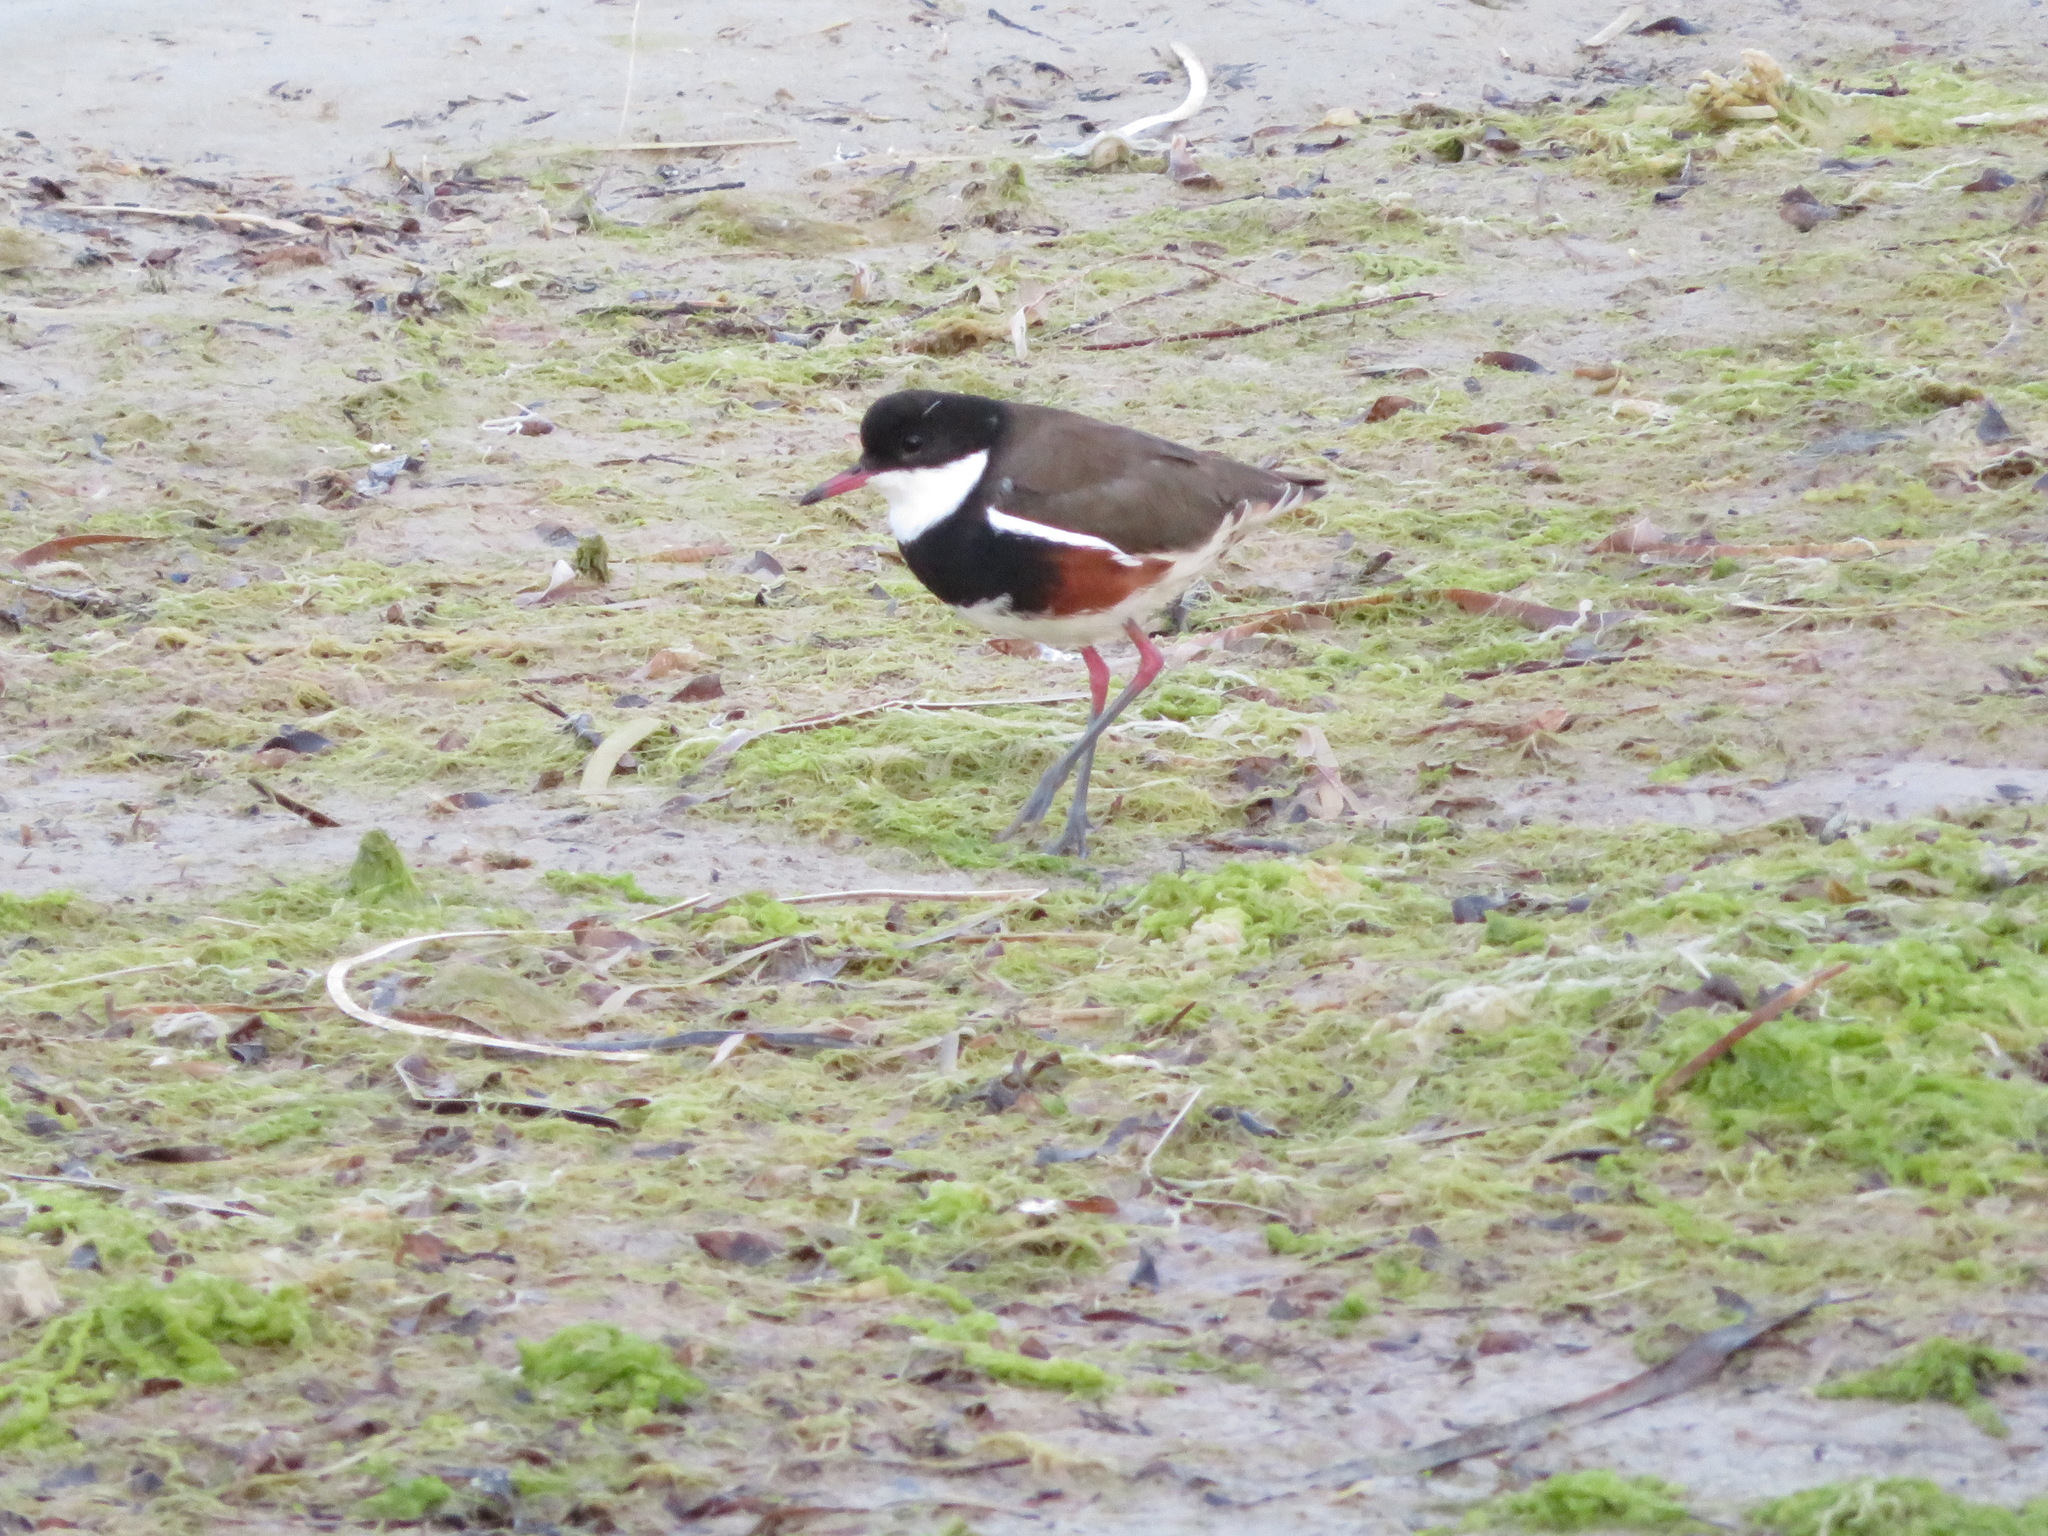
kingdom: Animalia
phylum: Chordata
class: Aves
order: Charadriiformes
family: Charadriidae
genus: Erythrogonys
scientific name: Erythrogonys cinctus
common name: Red-kneed dotterel
